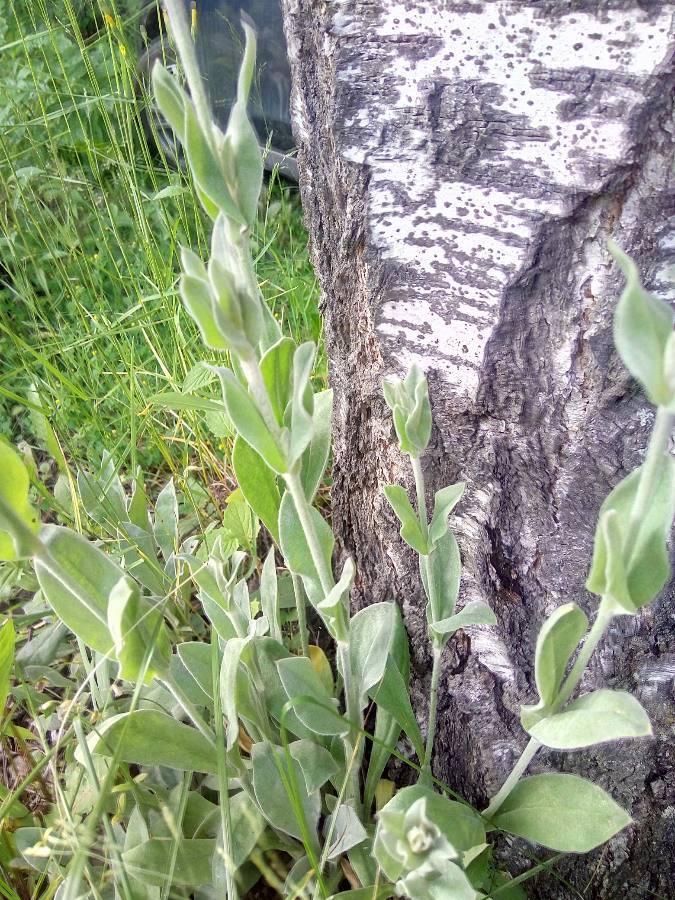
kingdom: Plantae
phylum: Tracheophyta
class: Magnoliopsida
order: Caryophyllales
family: Caryophyllaceae
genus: Silene
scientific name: Silene vulgaris
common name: Bladder campion
